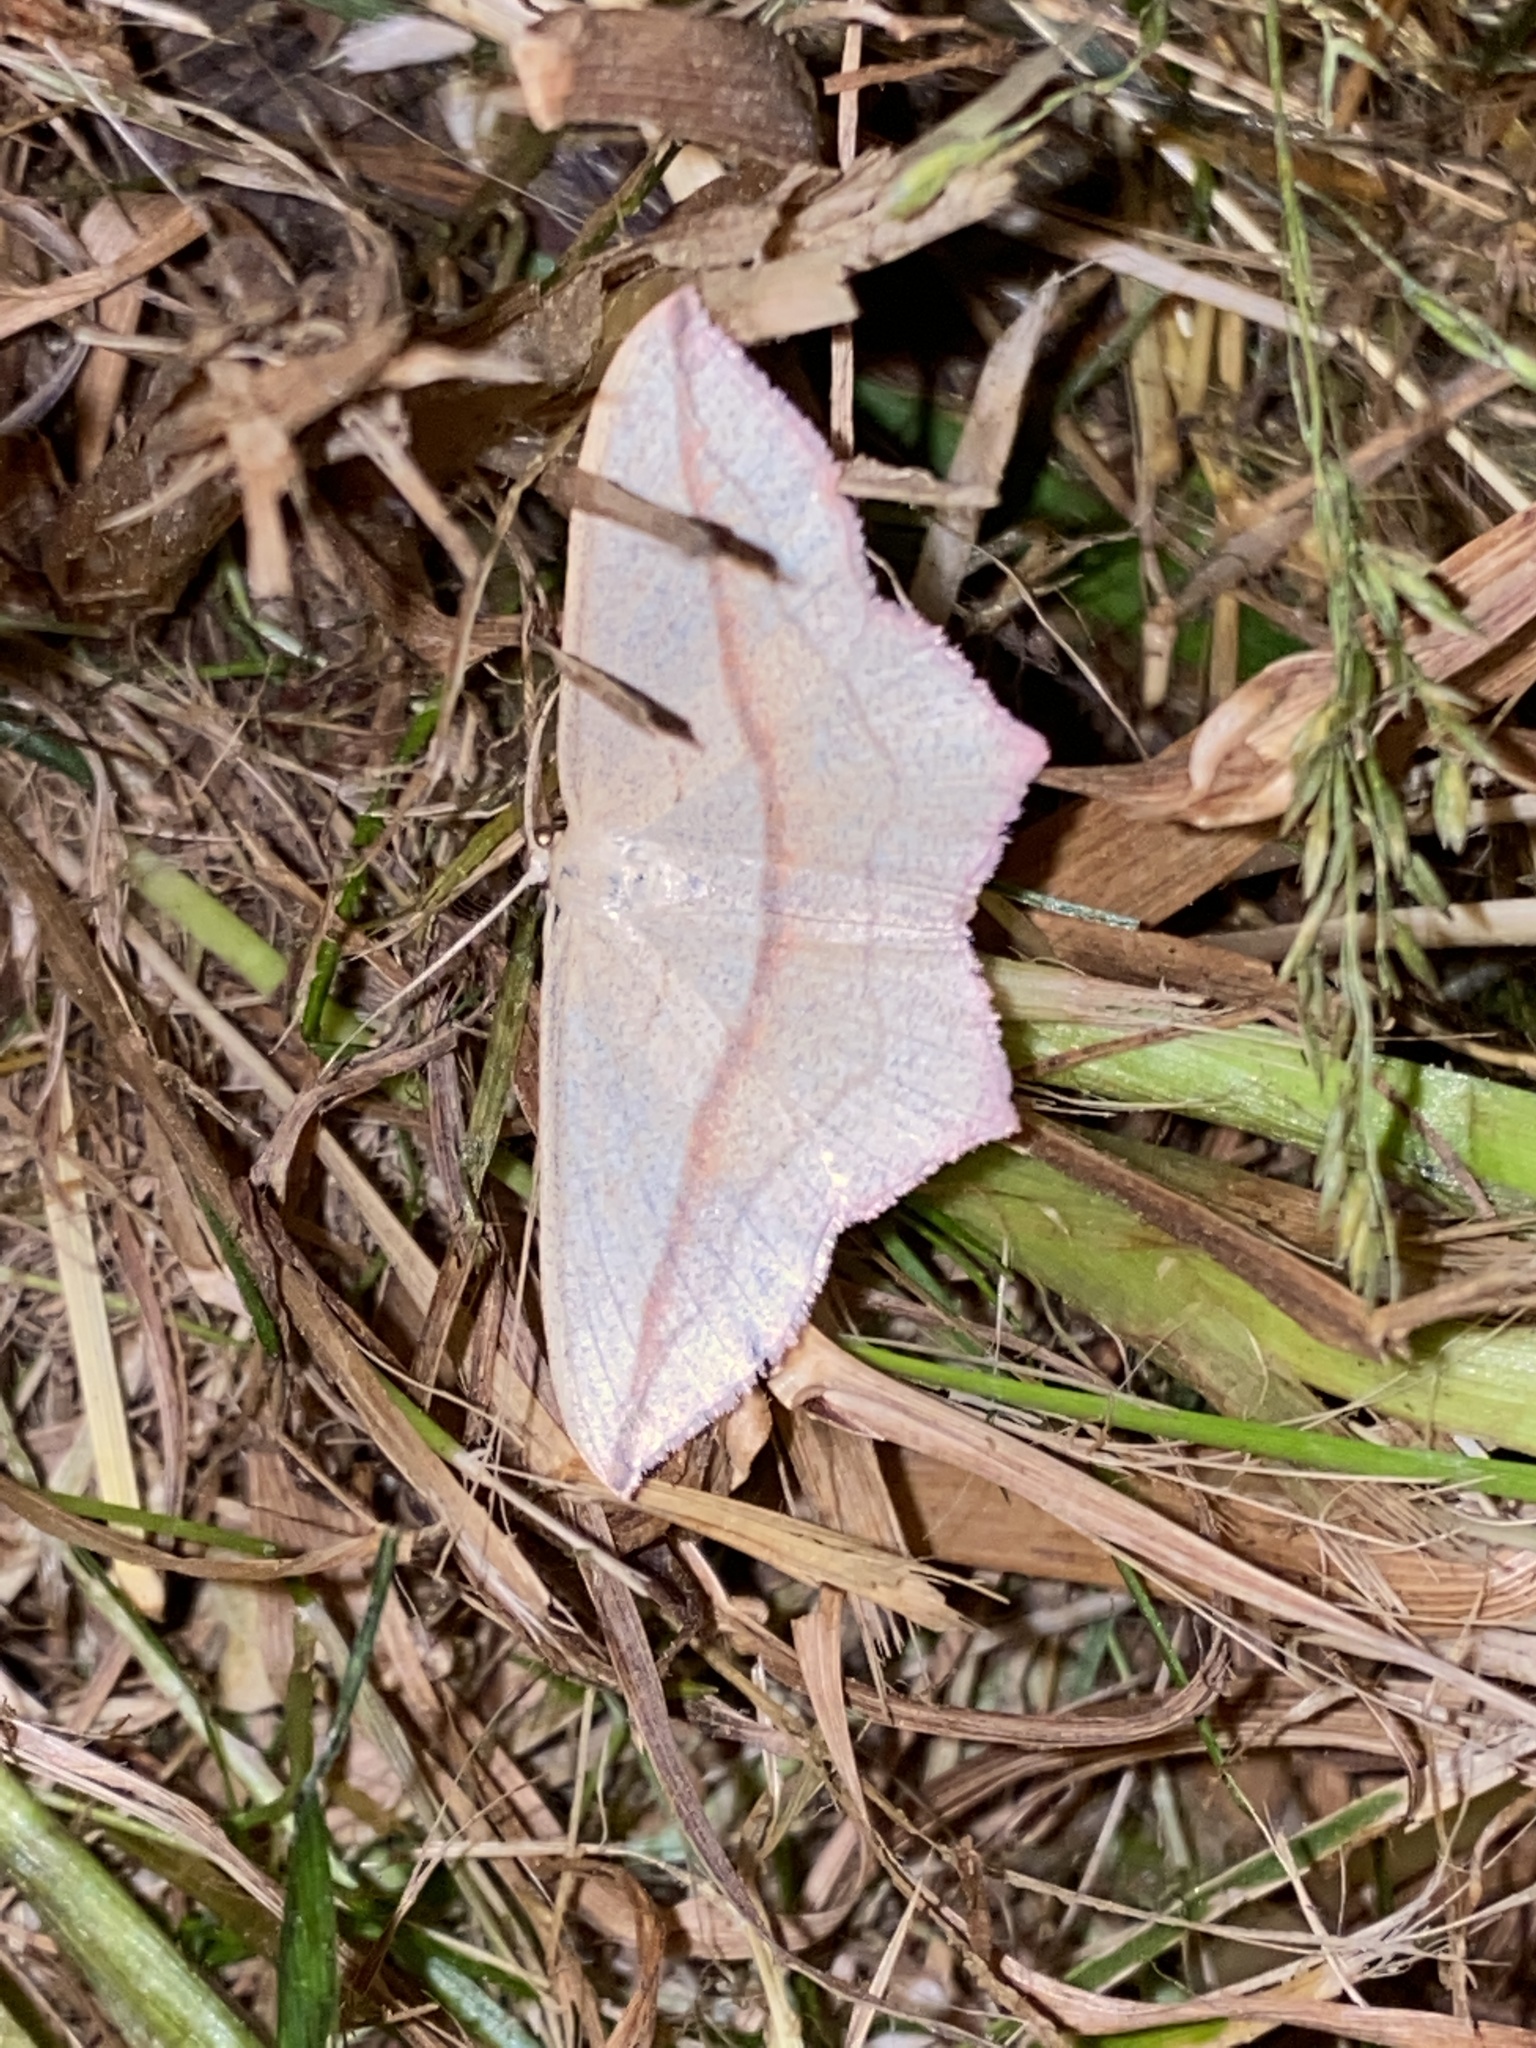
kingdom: Animalia
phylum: Arthropoda
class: Insecta
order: Lepidoptera
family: Geometridae
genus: Timandra
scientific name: Timandra comae
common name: Blood-vein
